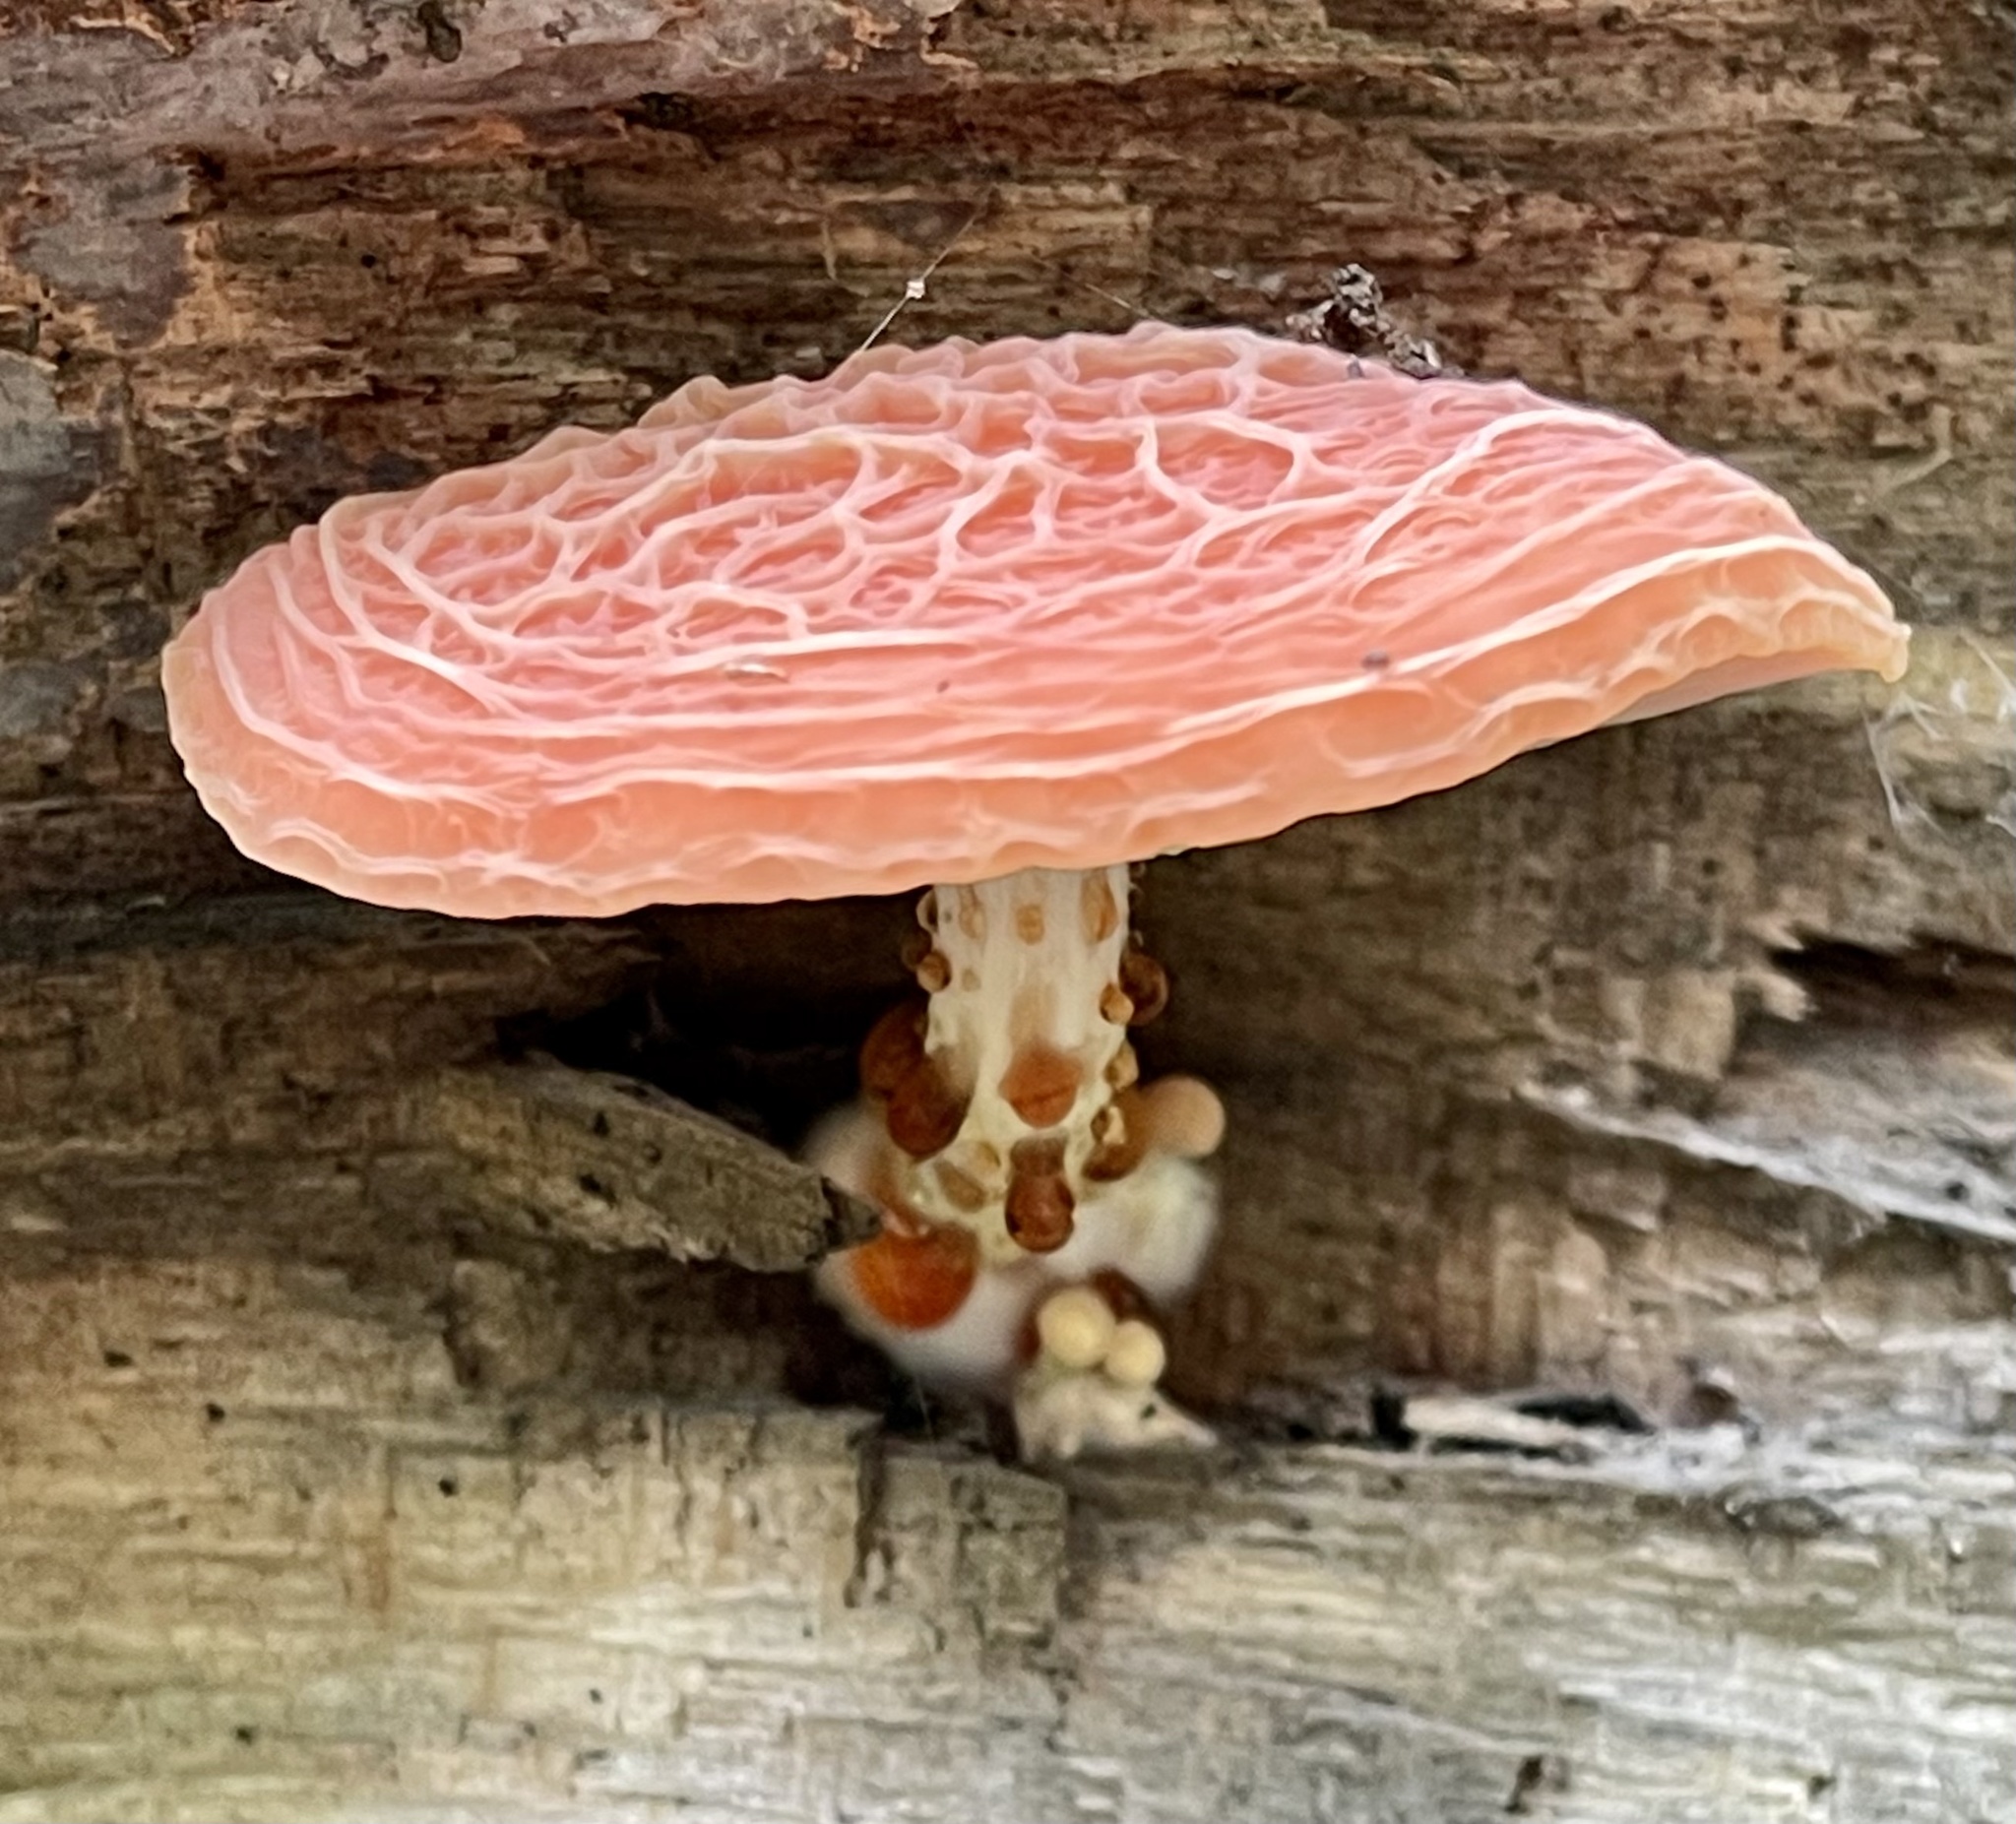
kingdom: Fungi
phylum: Basidiomycota
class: Agaricomycetes
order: Agaricales
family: Physalacriaceae
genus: Rhodotus
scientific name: Rhodotus palmatus
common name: Wrinkled peach
